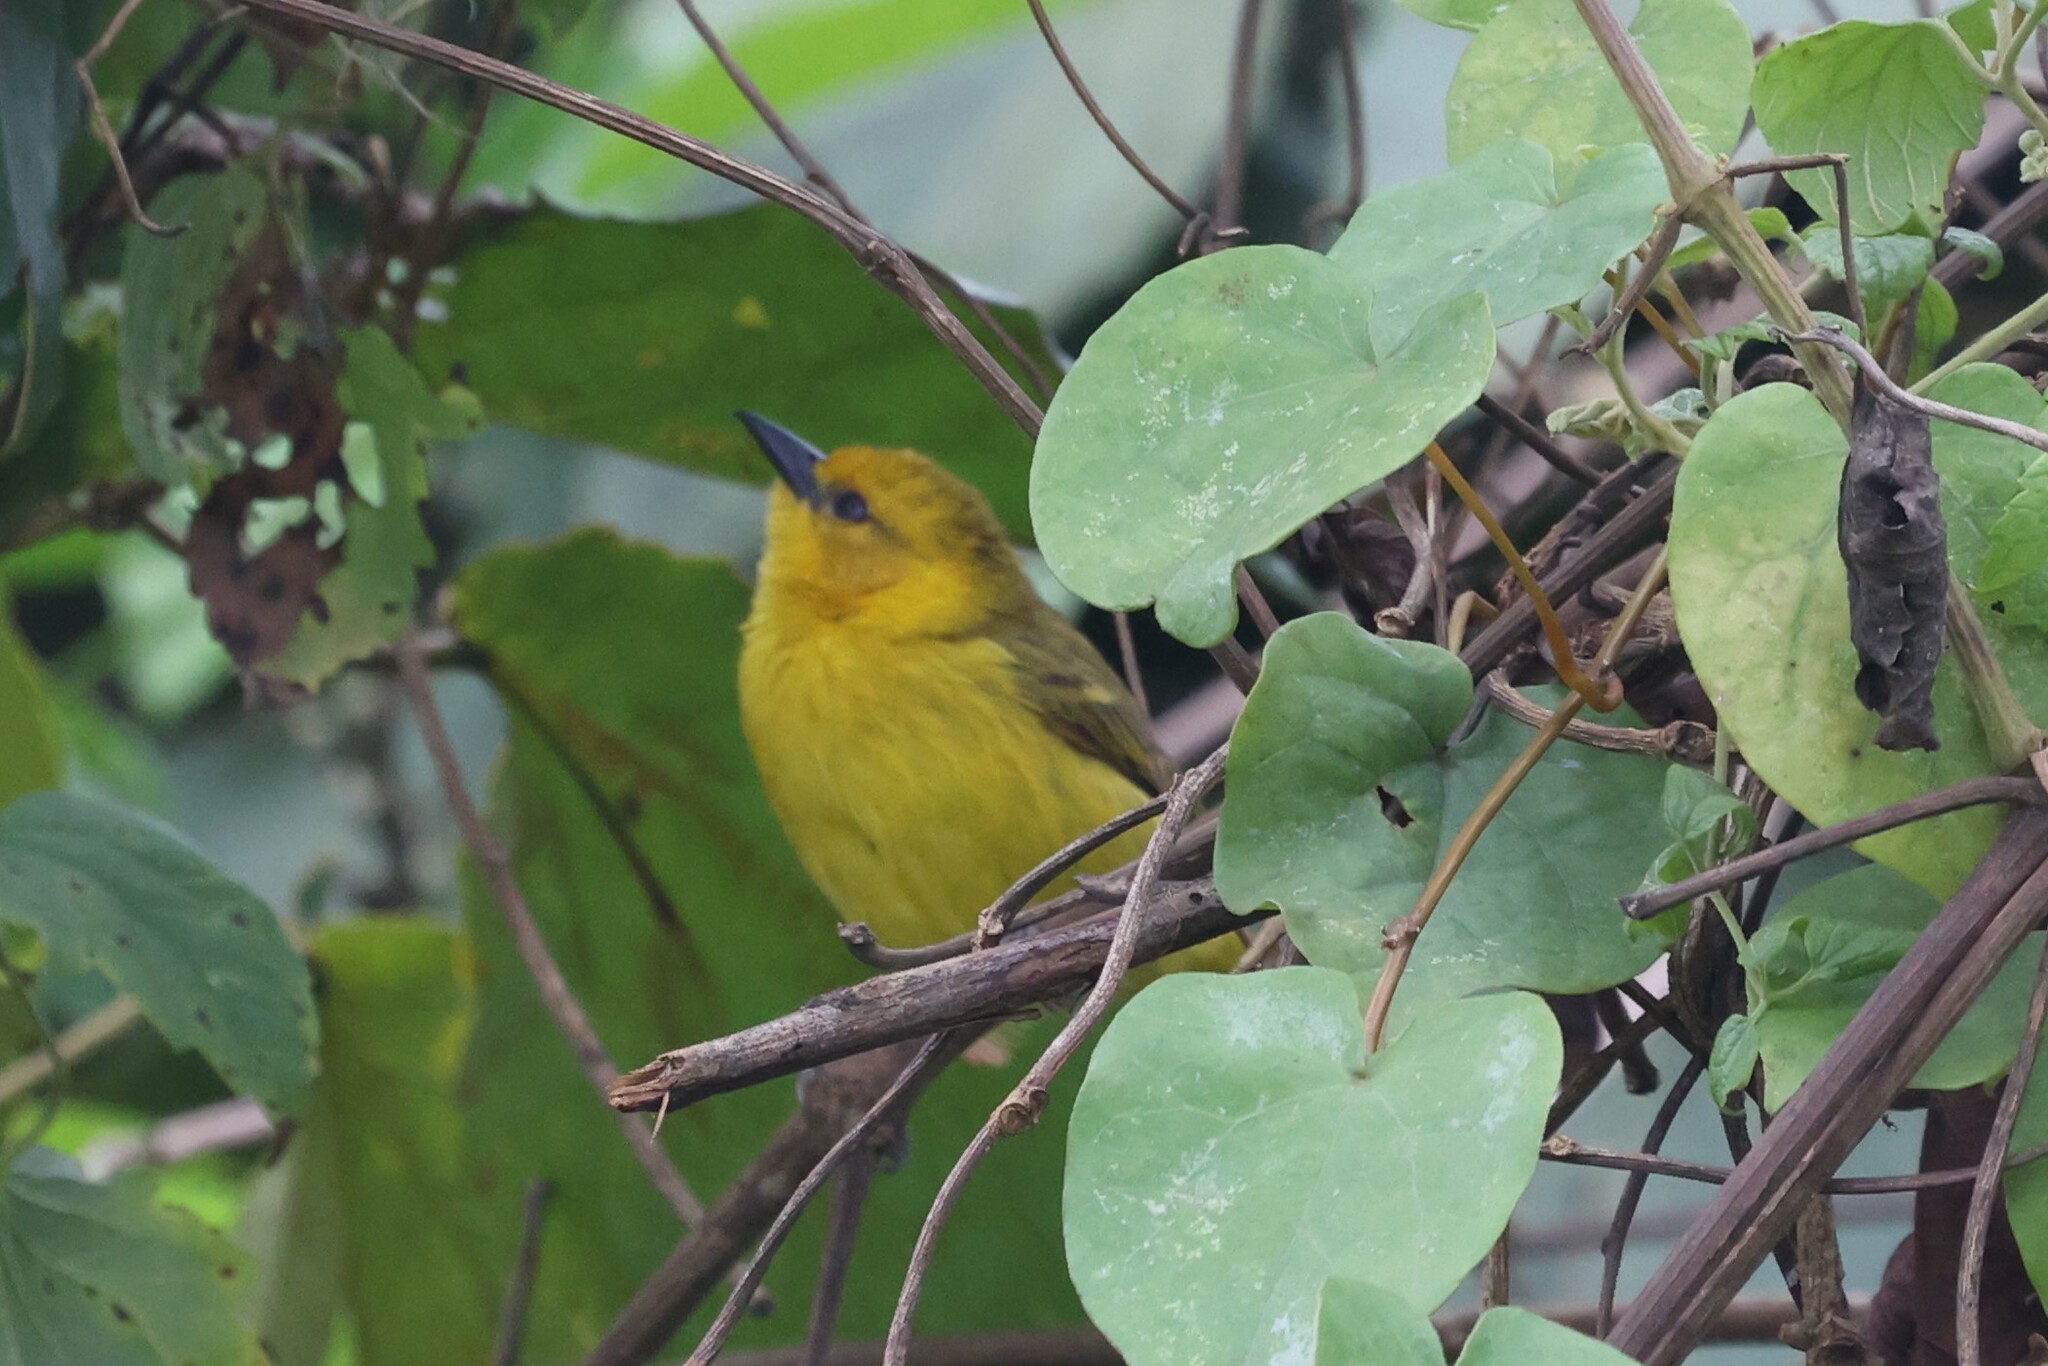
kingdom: Animalia
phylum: Chordata
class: Aves
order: Passeriformes
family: Ploceidae
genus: Ploceus
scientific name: Ploceus pelzelni
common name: Slender-billed weaver
